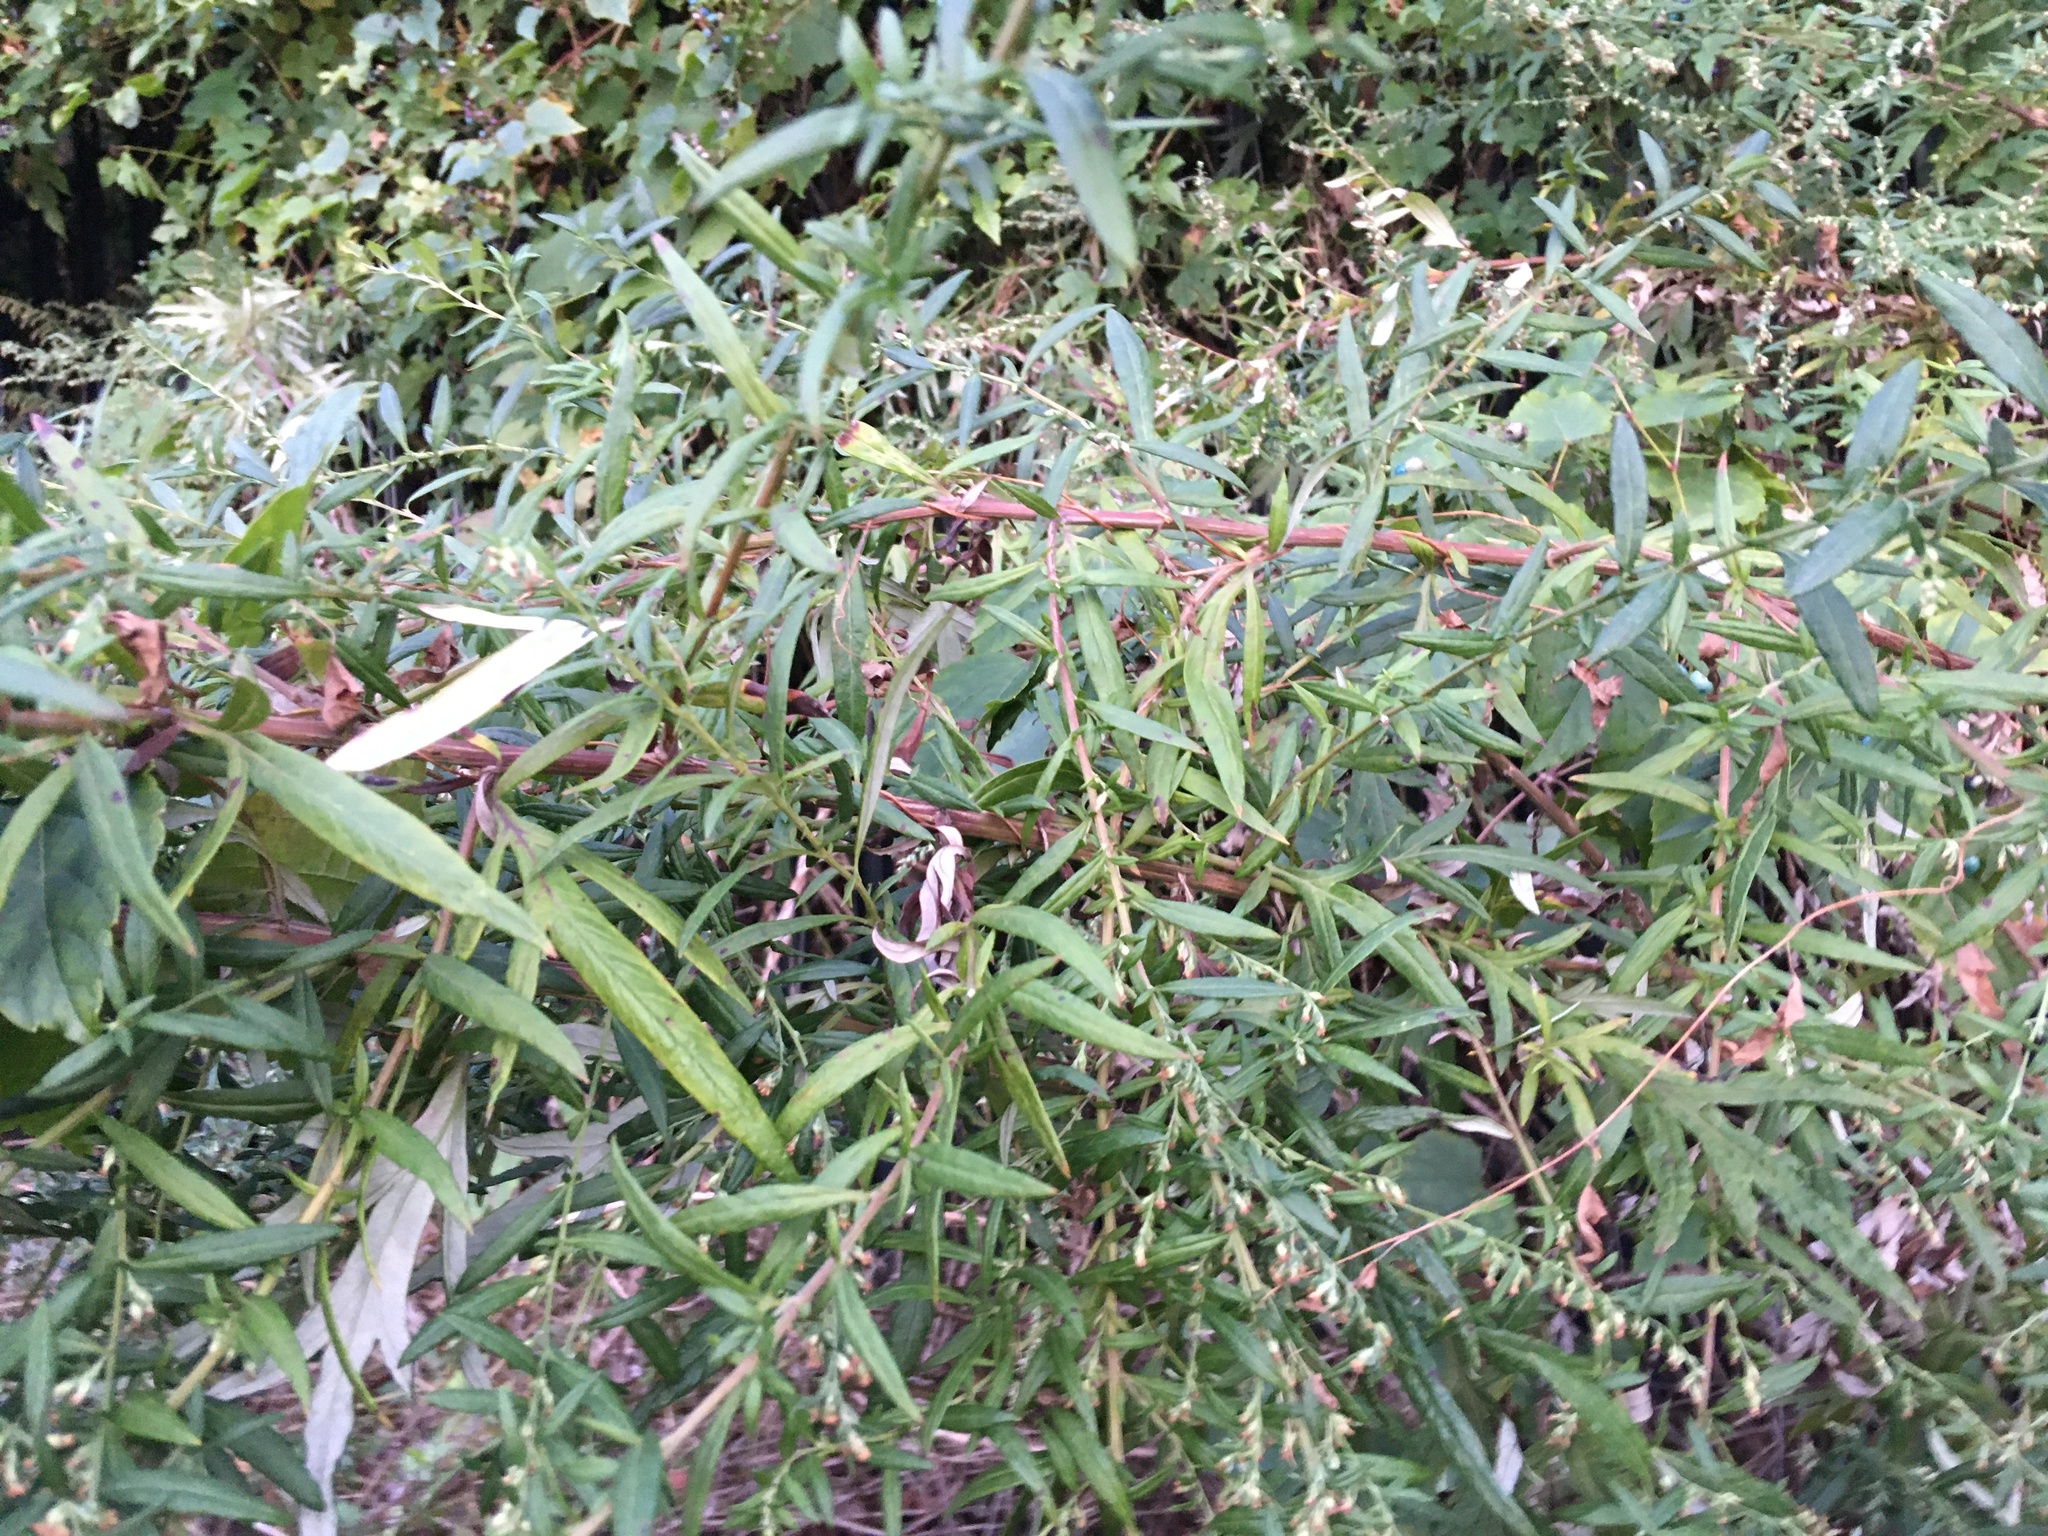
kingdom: Plantae
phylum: Tracheophyta
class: Magnoliopsida
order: Asterales
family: Asteraceae
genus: Artemisia
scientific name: Artemisia vulgaris
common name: Mugwort
